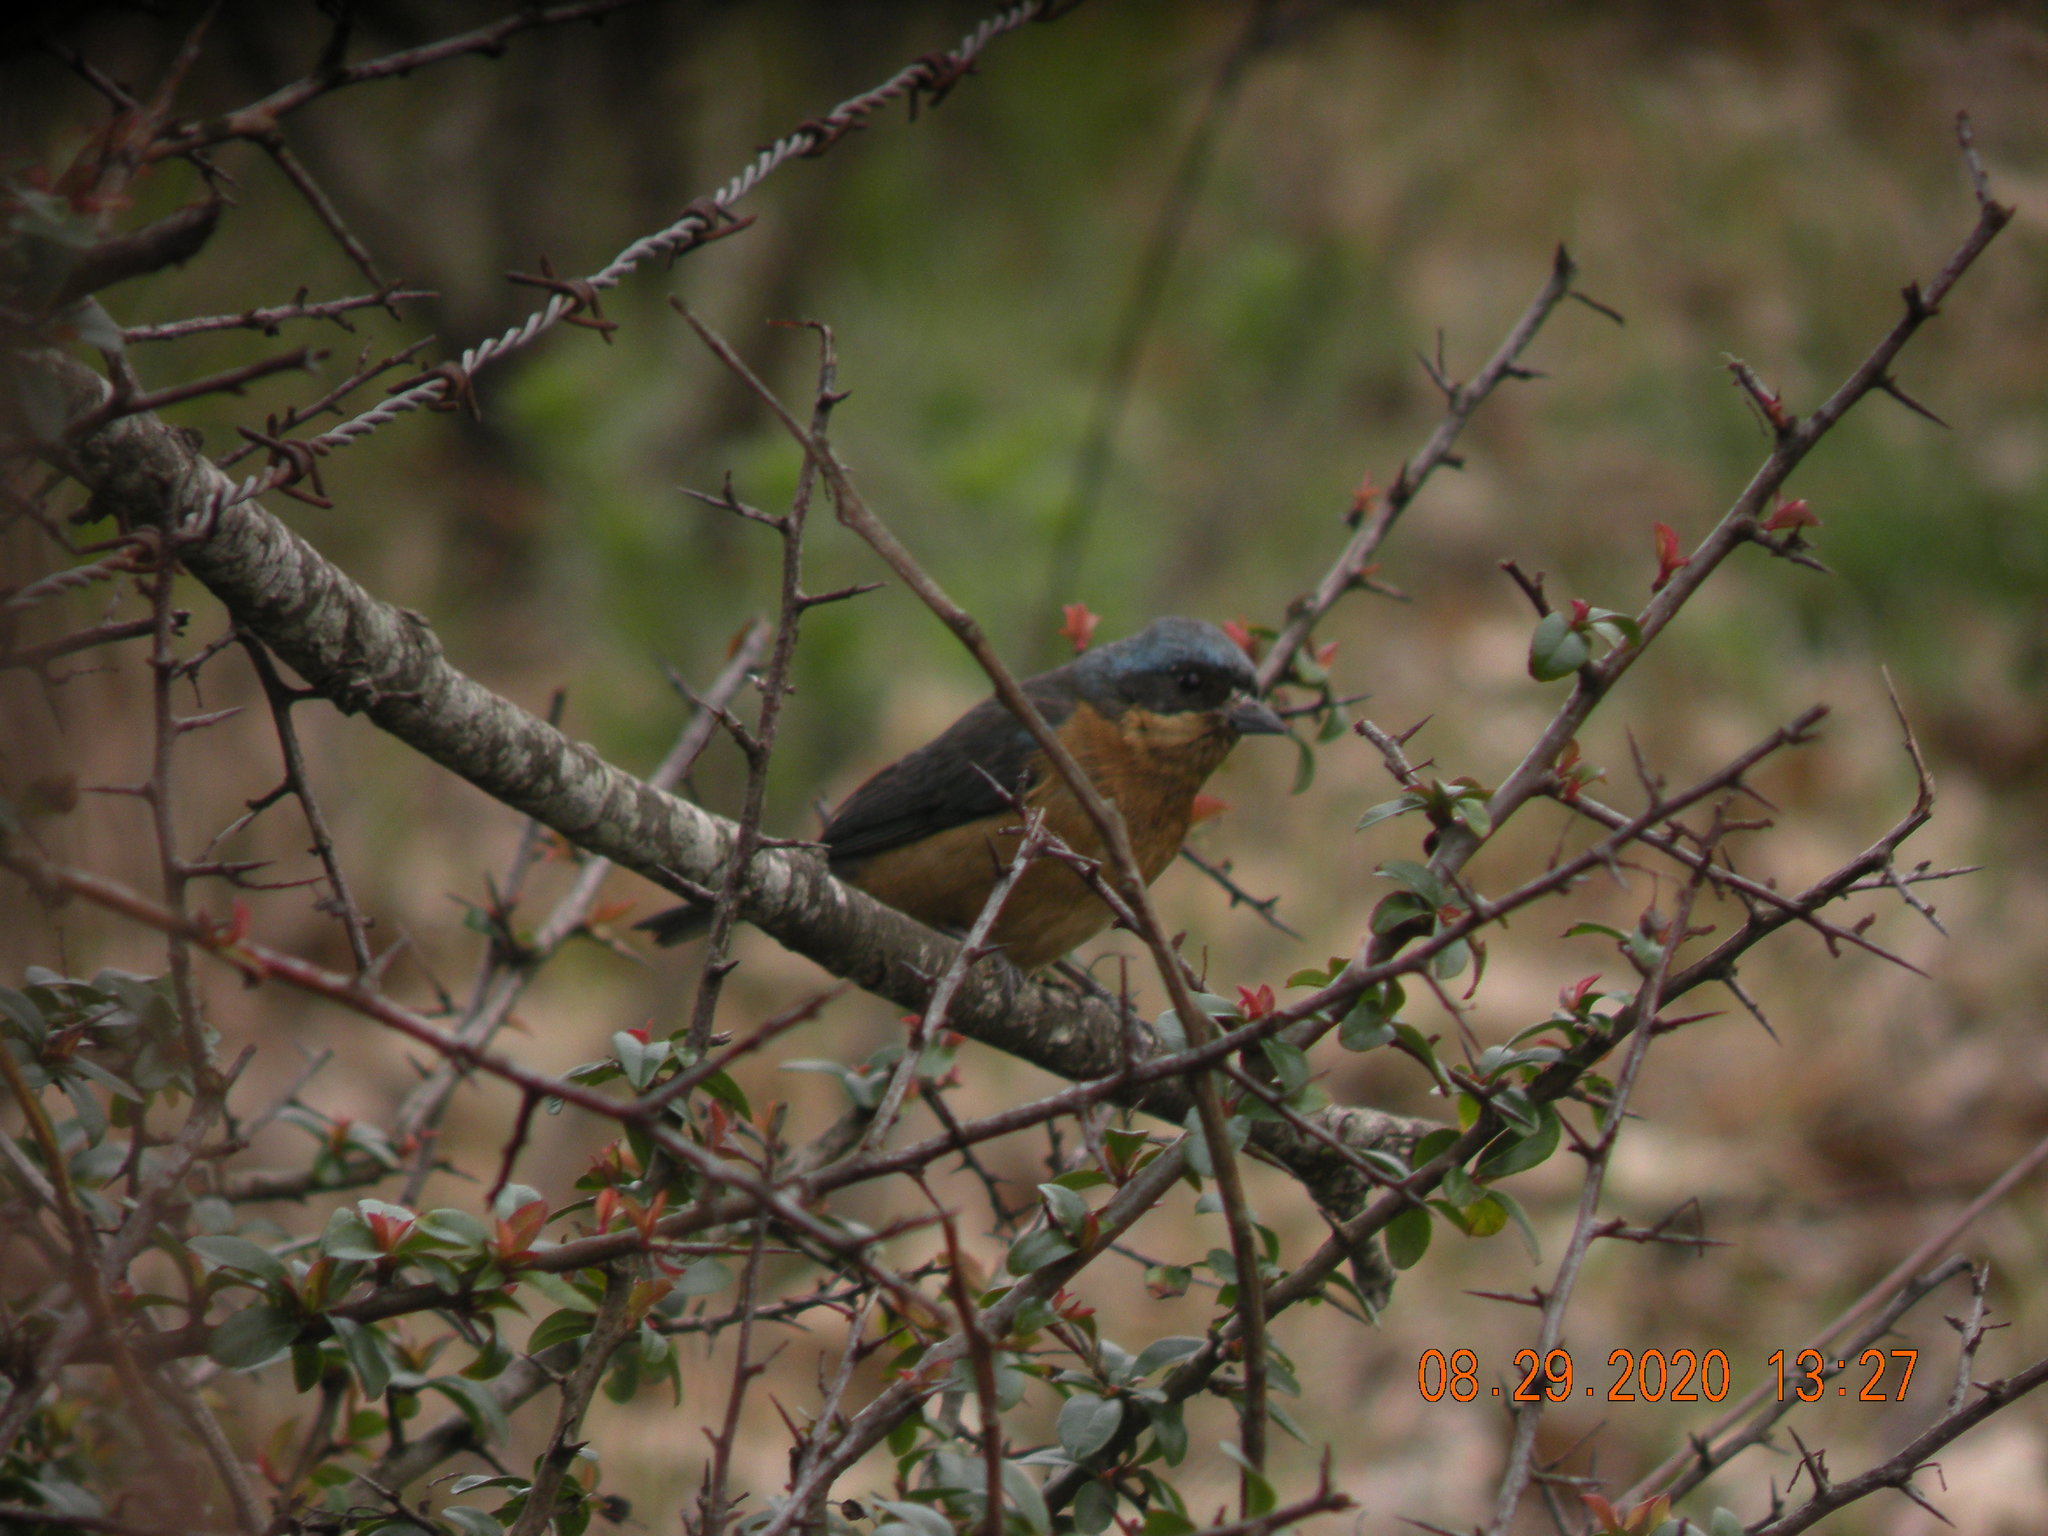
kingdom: Animalia
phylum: Chordata
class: Aves
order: Passeriformes
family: Thraupidae
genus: Pipraeidea
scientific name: Pipraeidea melanonota
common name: Fawn-breasted tanager
